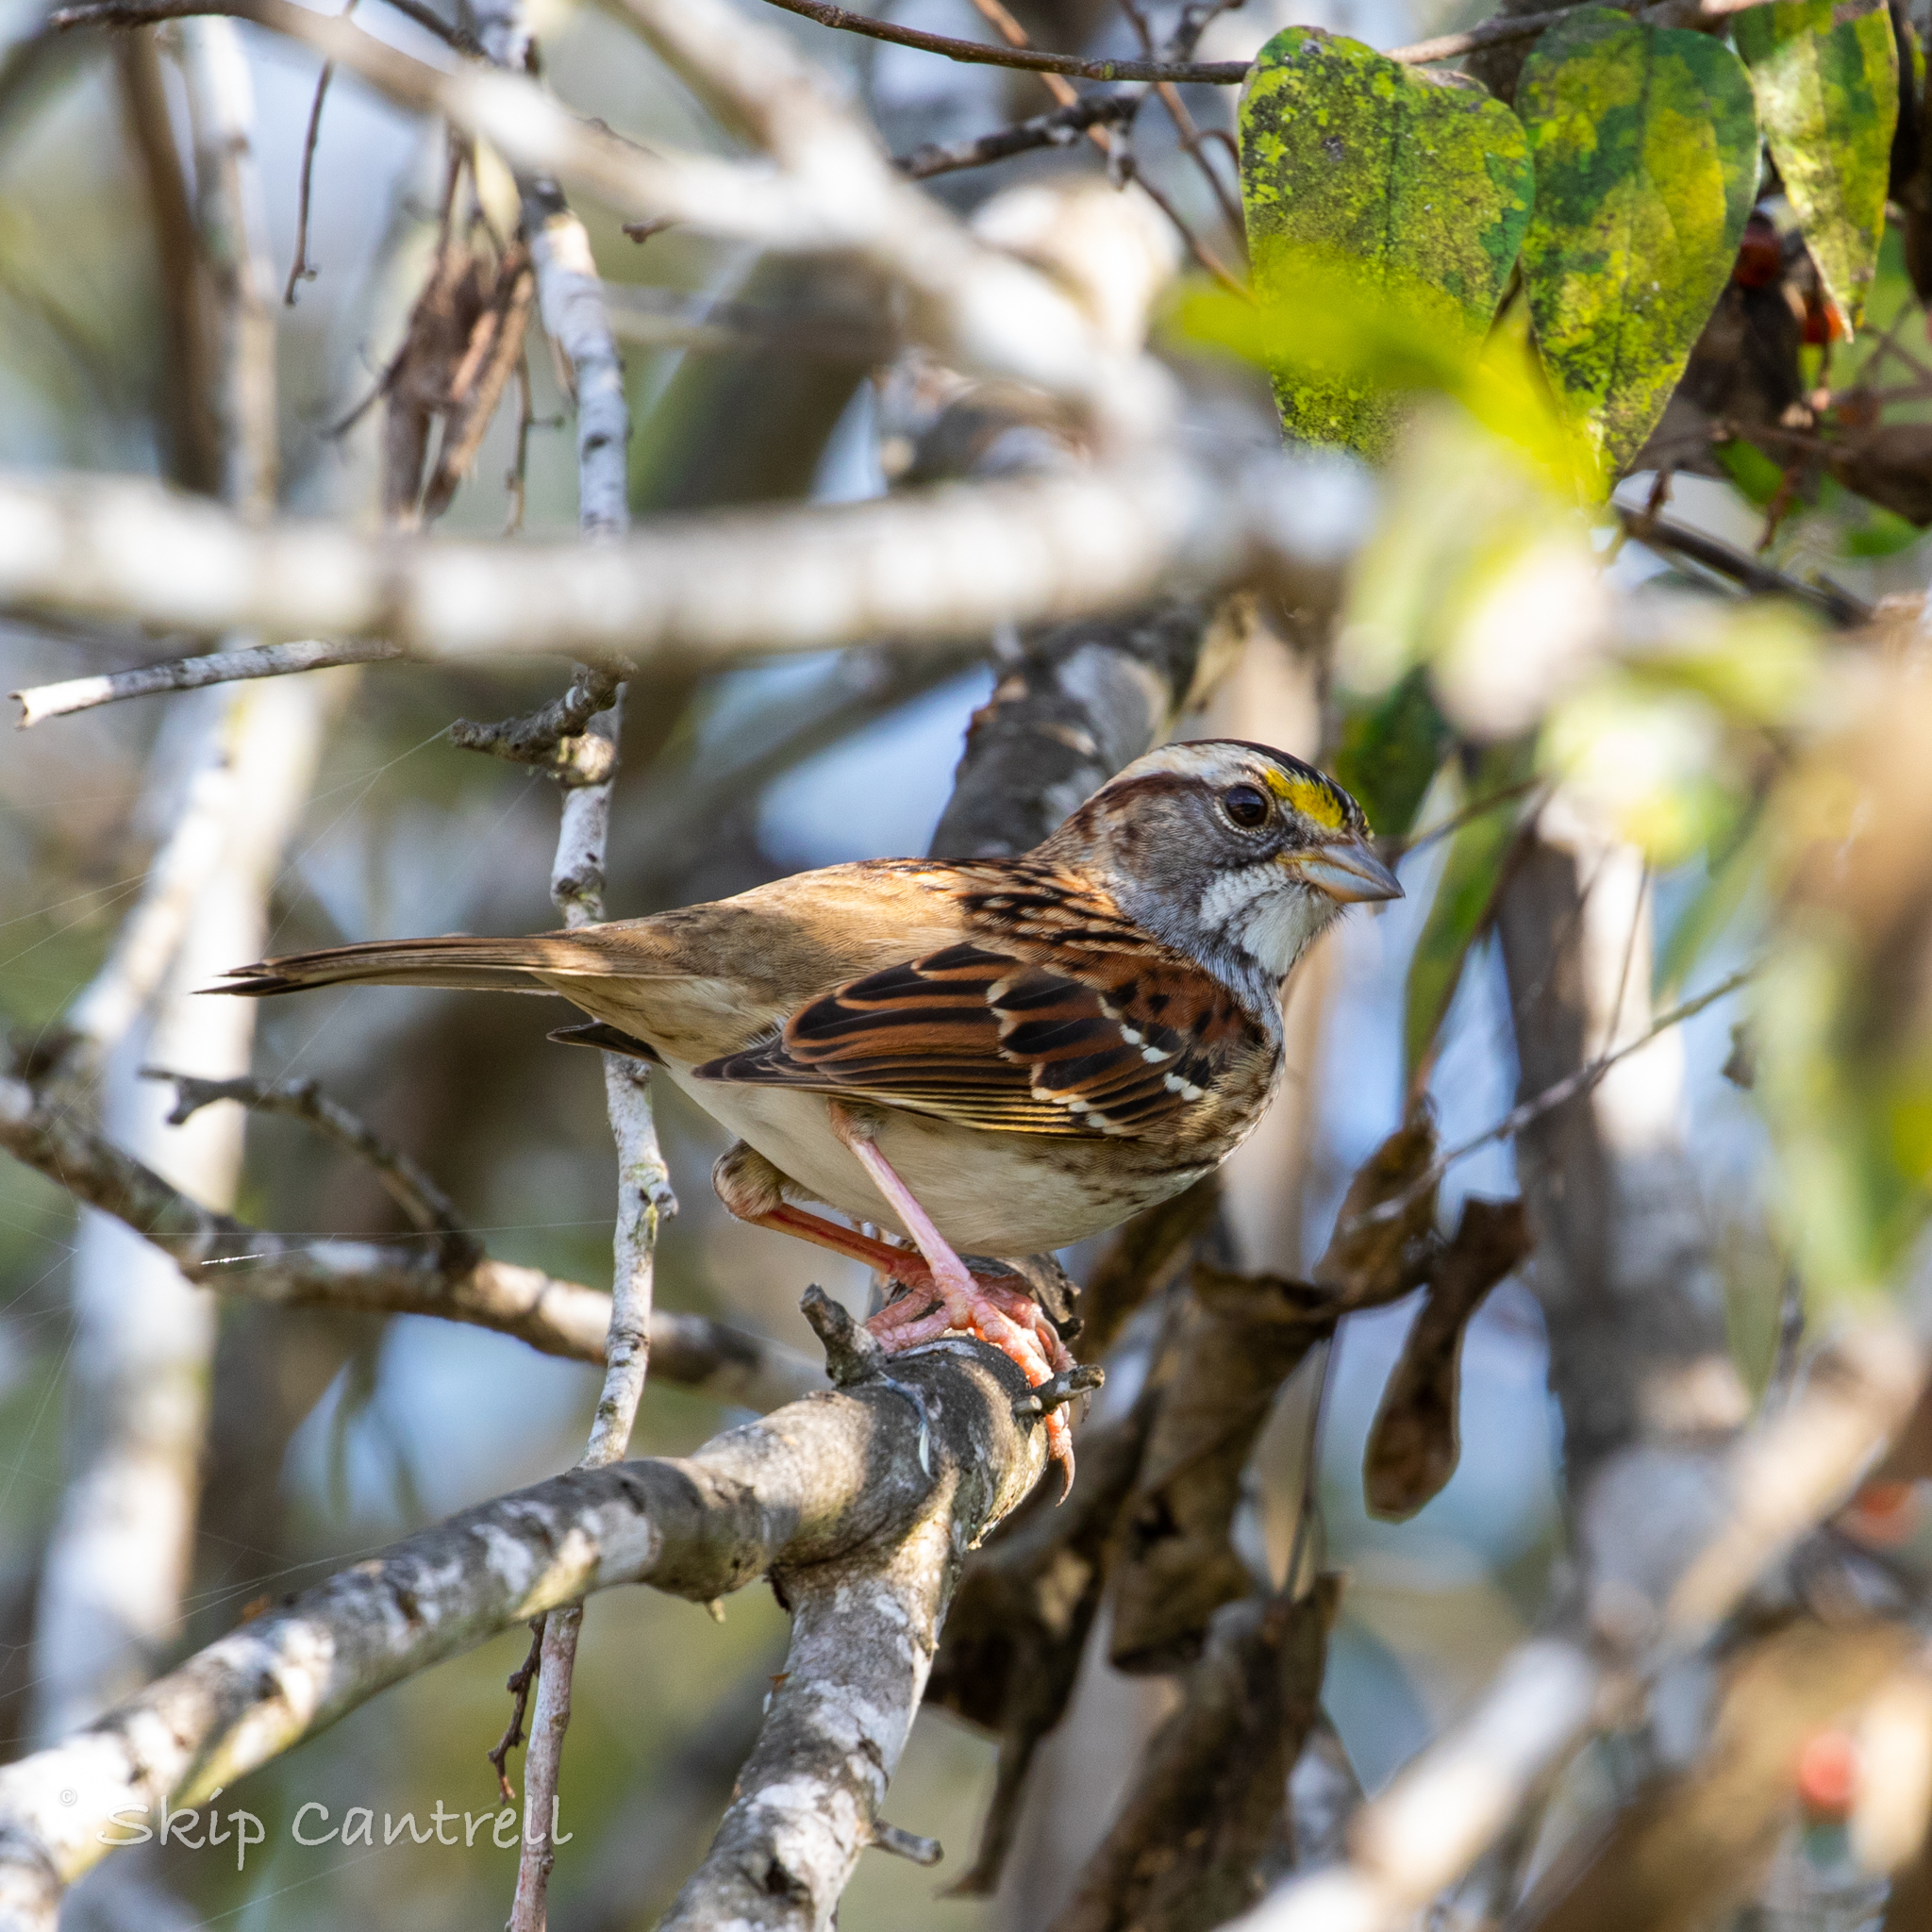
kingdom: Animalia
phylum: Chordata
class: Aves
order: Passeriformes
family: Passerellidae
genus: Zonotrichia
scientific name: Zonotrichia albicollis
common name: White-throated sparrow
